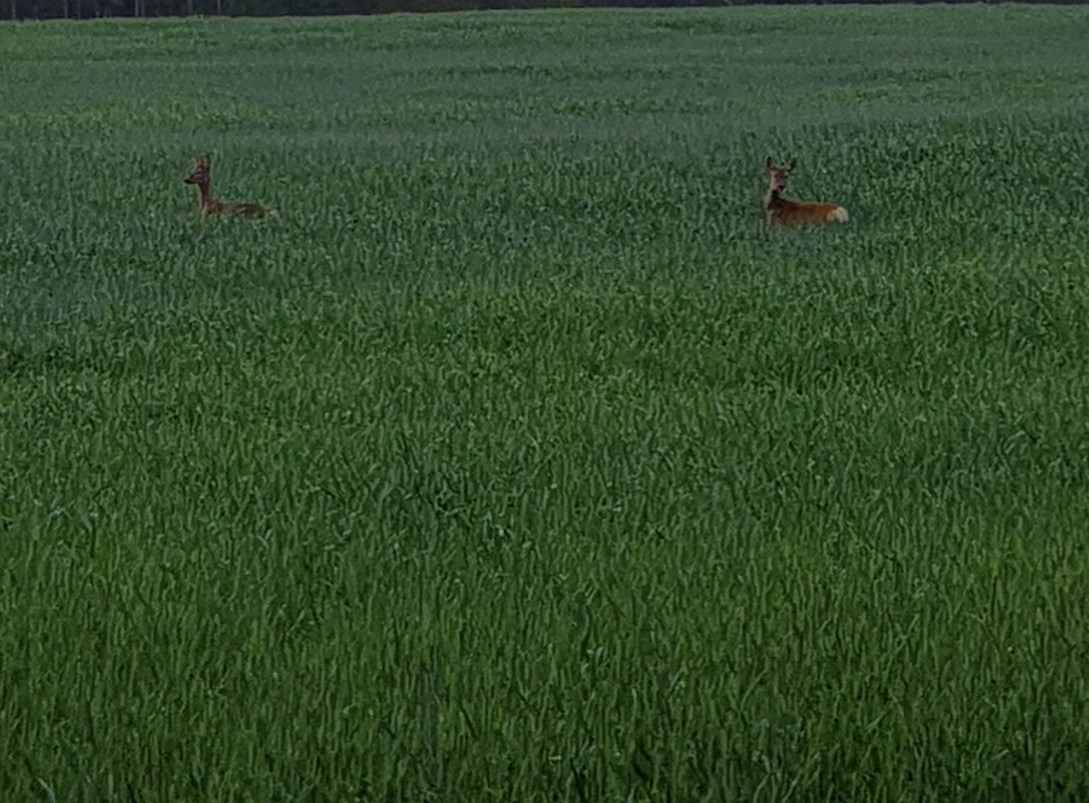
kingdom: Animalia
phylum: Chordata
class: Mammalia
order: Artiodactyla
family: Cervidae
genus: Capreolus
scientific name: Capreolus capreolus
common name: Western roe deer
